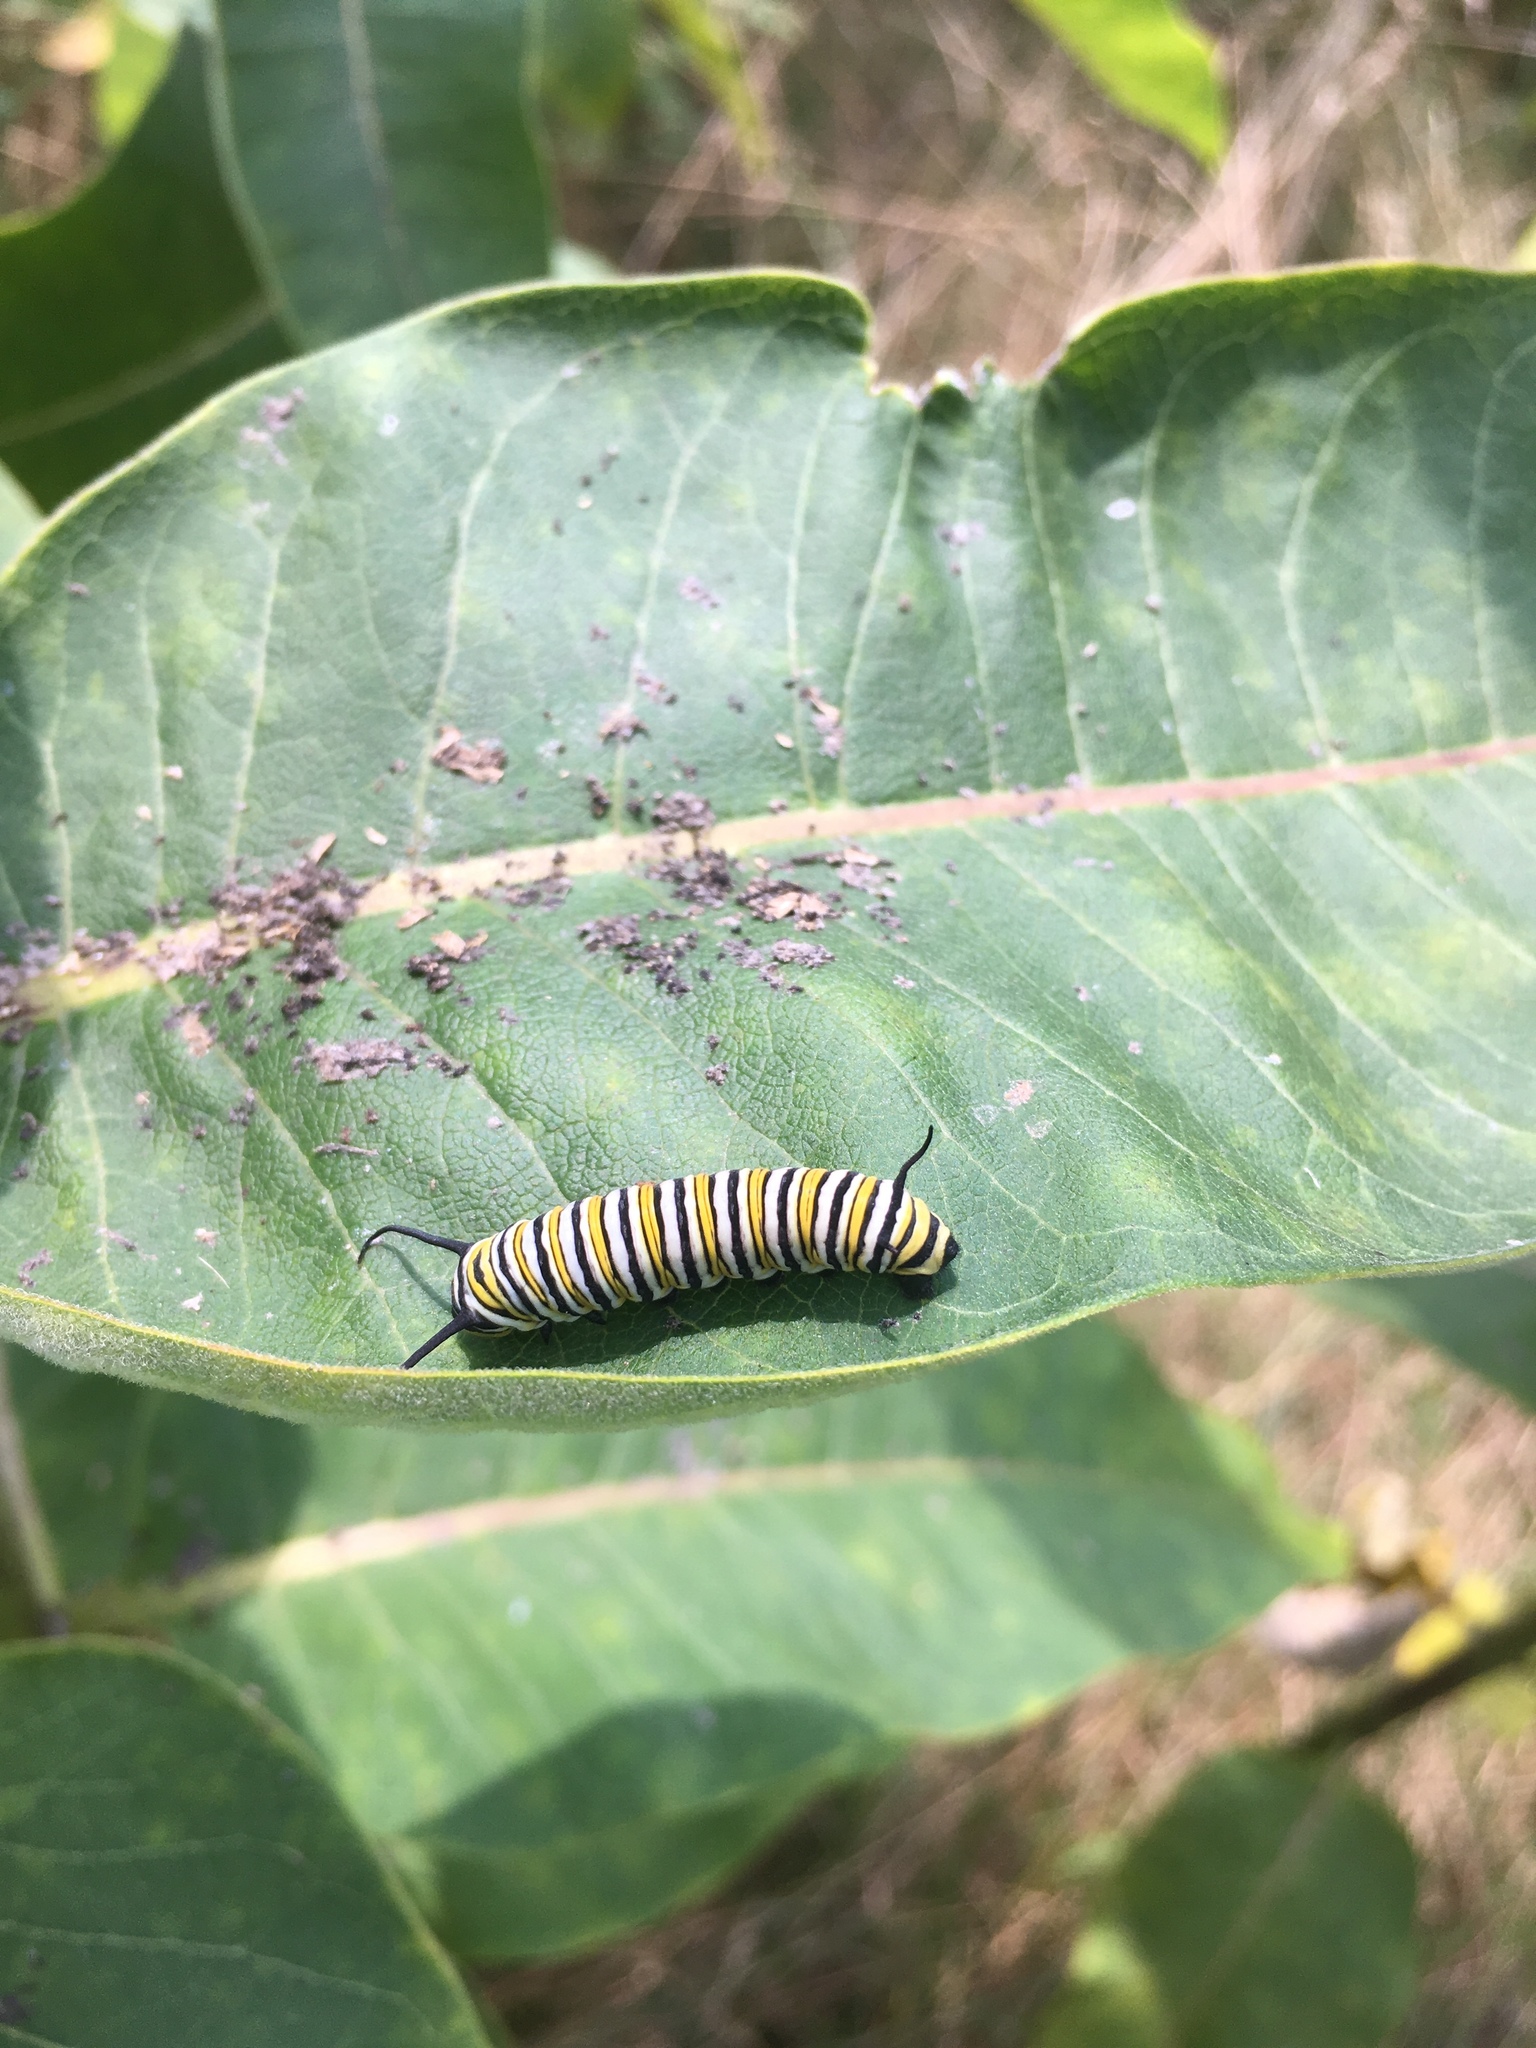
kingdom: Animalia
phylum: Arthropoda
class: Insecta
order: Lepidoptera
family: Nymphalidae
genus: Danaus
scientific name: Danaus plexippus
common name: Monarch
